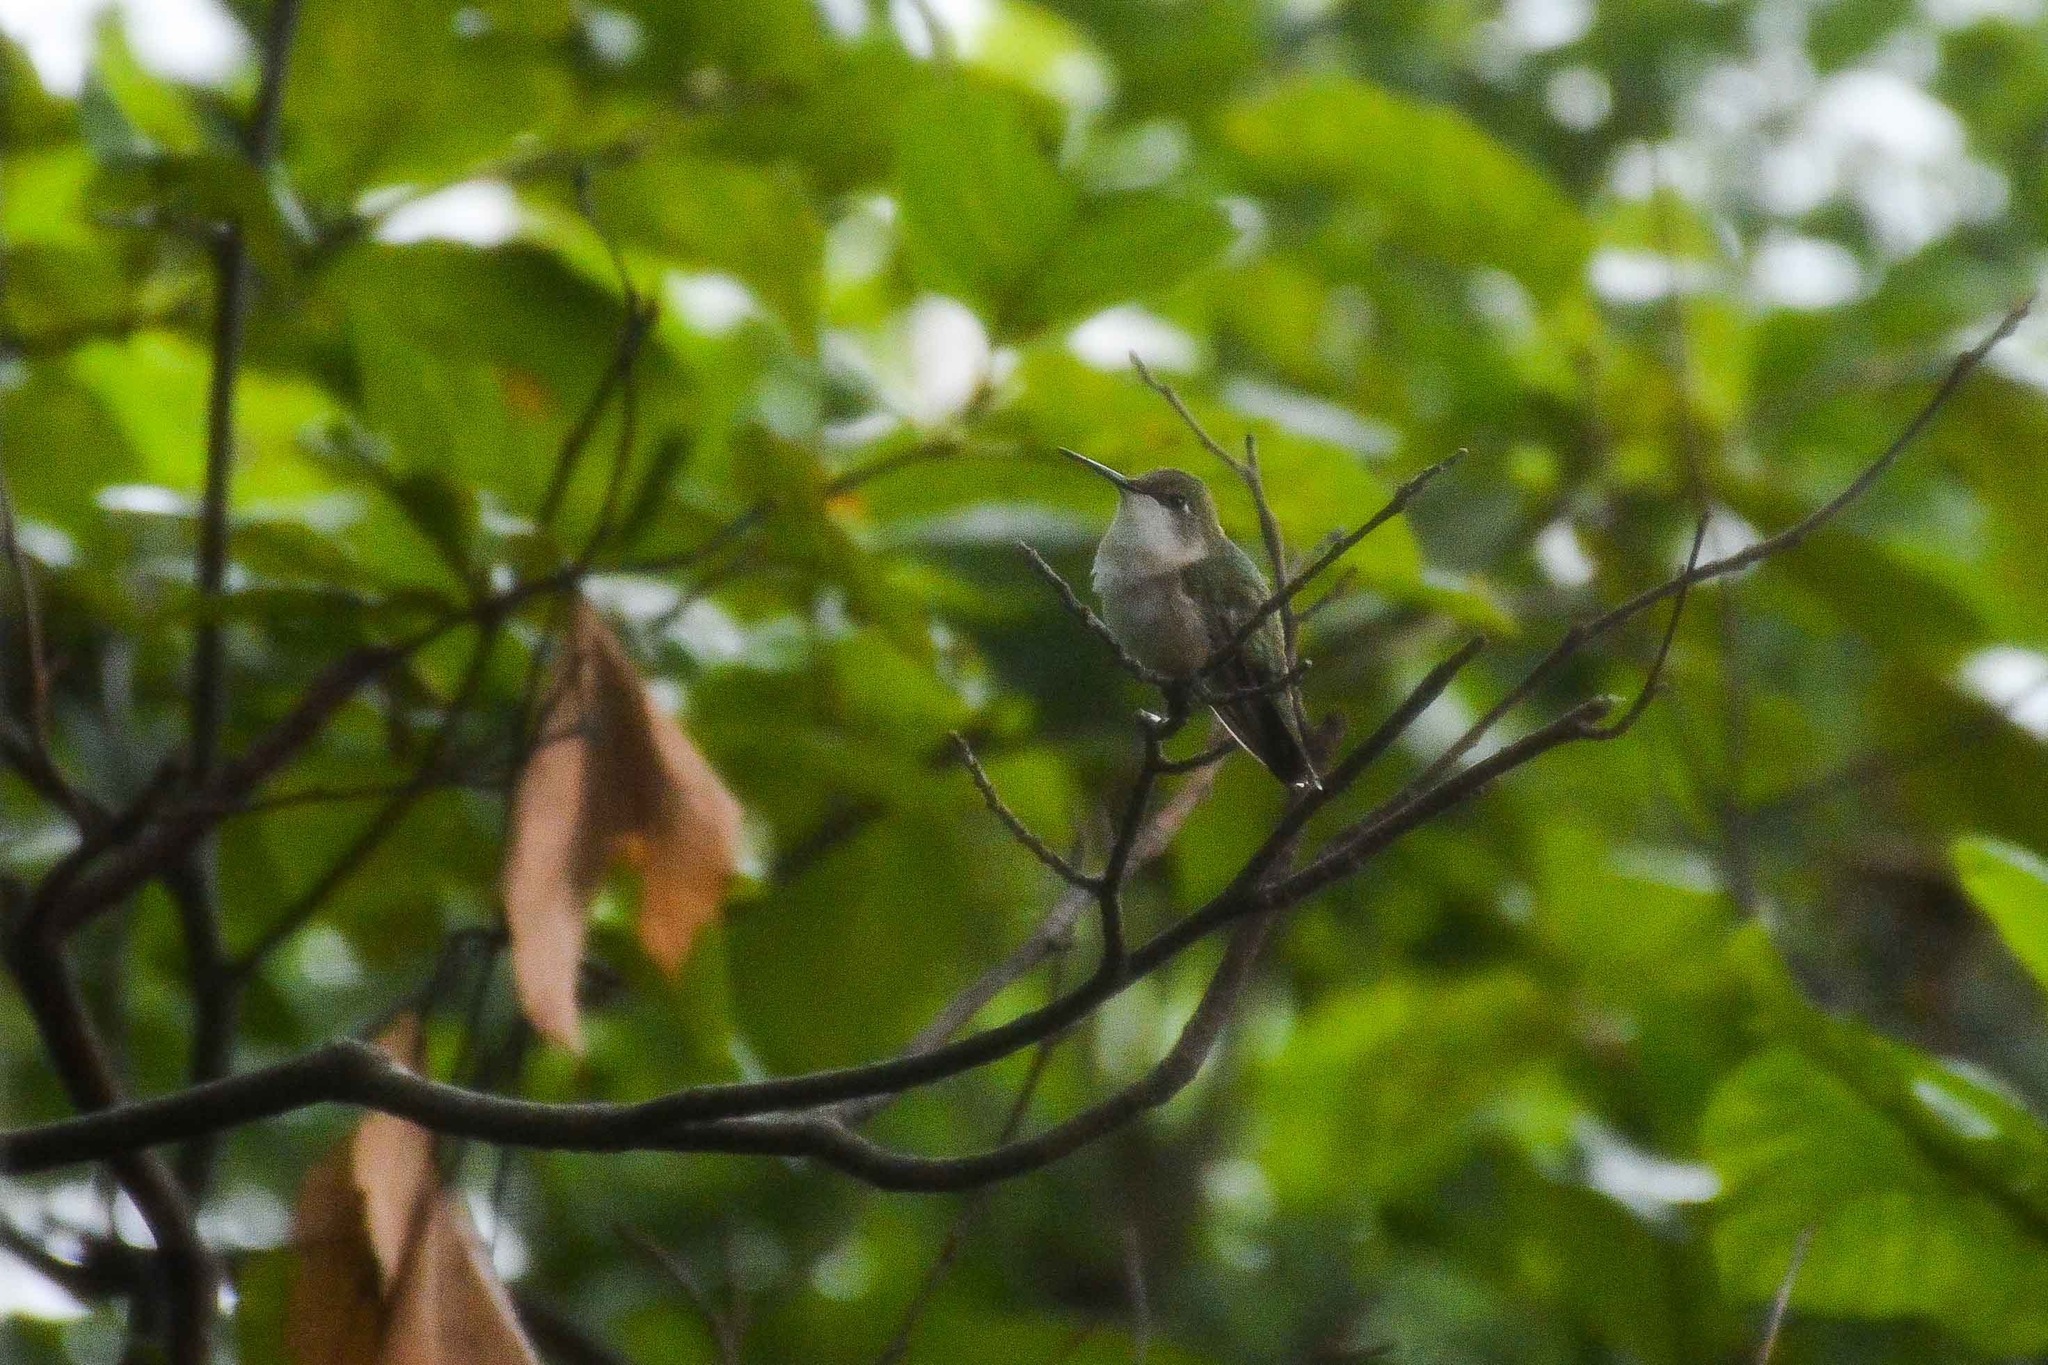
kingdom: Animalia
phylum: Chordata
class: Aves
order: Apodiformes
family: Trochilidae
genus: Archilochus
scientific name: Archilochus colubris
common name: Ruby-throated hummingbird
